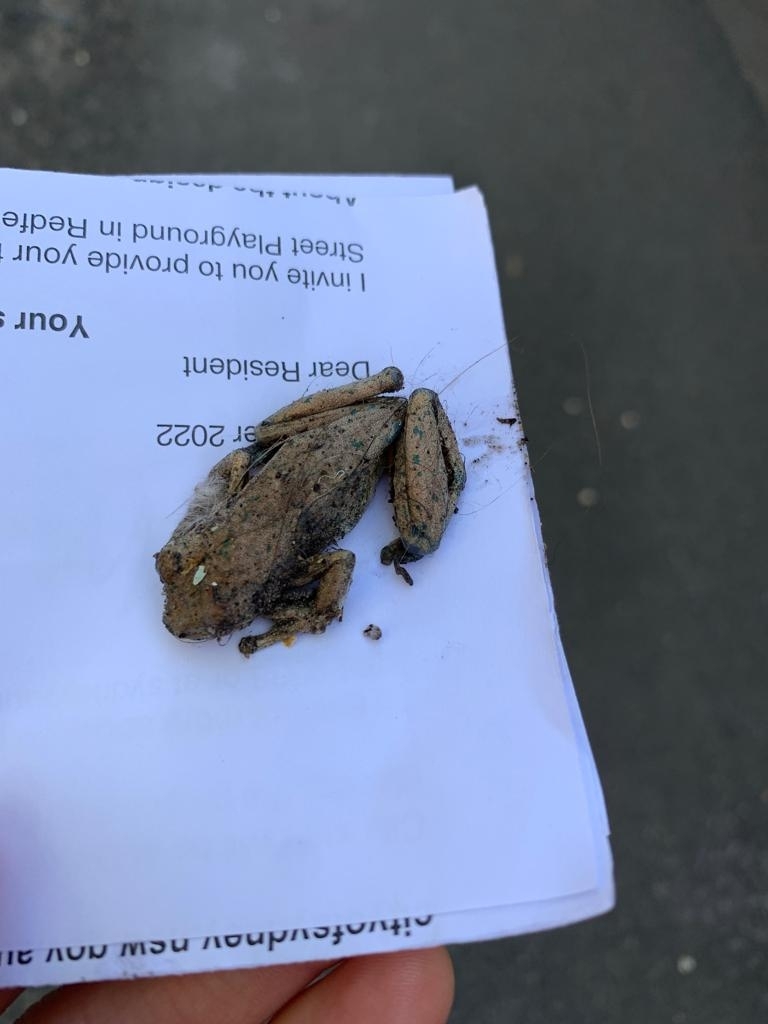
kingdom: Animalia
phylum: Chordata
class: Amphibia
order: Anura
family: Pelodryadidae
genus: Litoria
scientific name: Litoria peronii
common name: Emerald spotted treefrog
